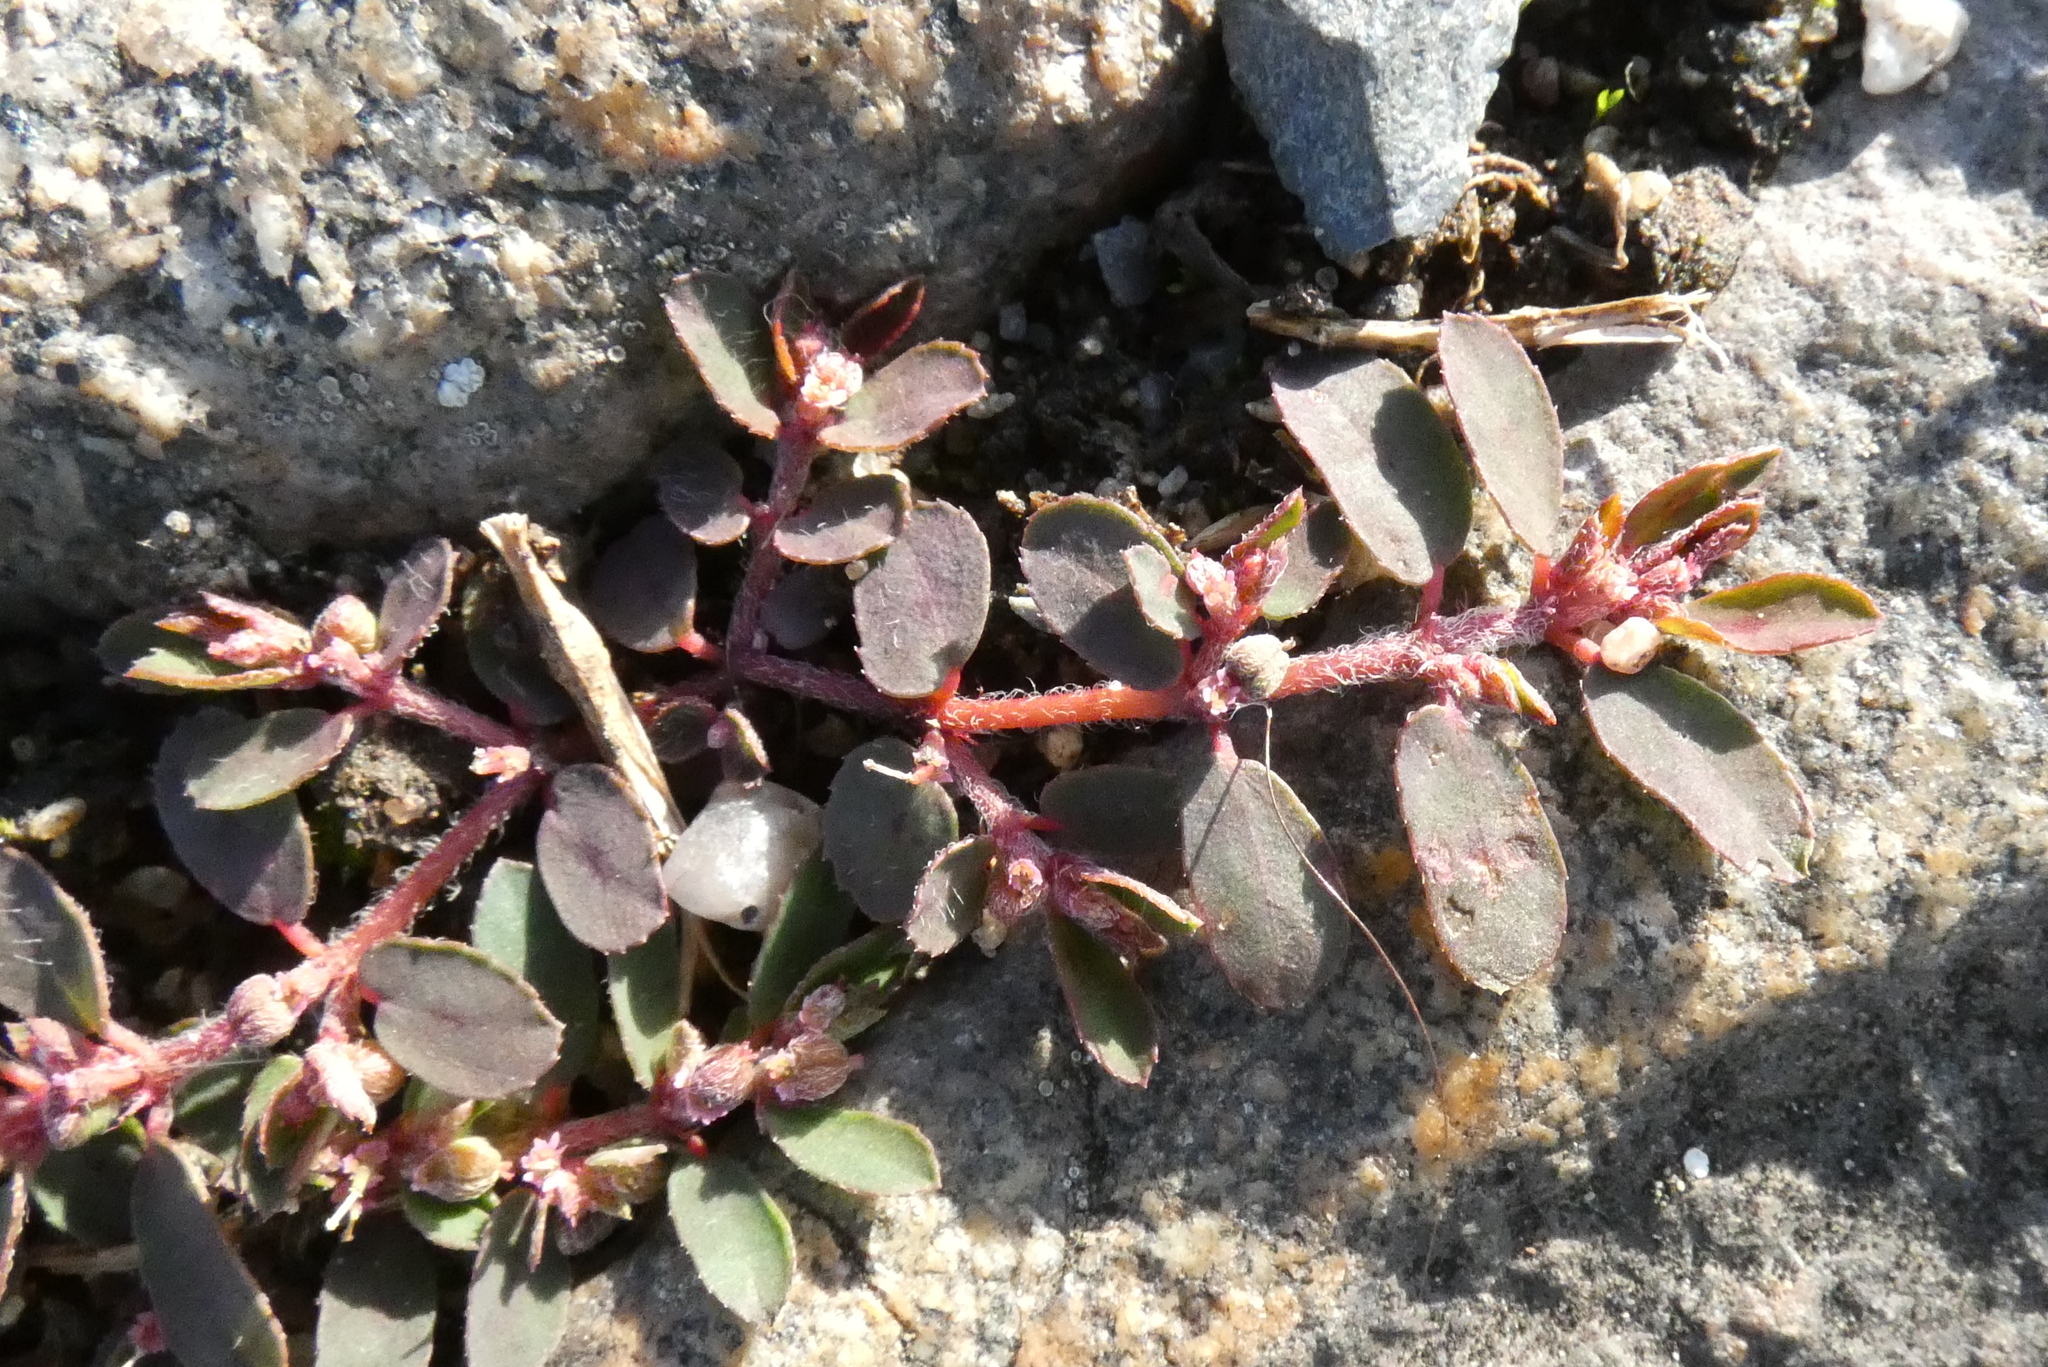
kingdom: Plantae
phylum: Tracheophyta
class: Magnoliopsida
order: Malpighiales
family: Euphorbiaceae
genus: Euphorbia
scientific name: Euphorbia maculata
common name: Spotted spurge
